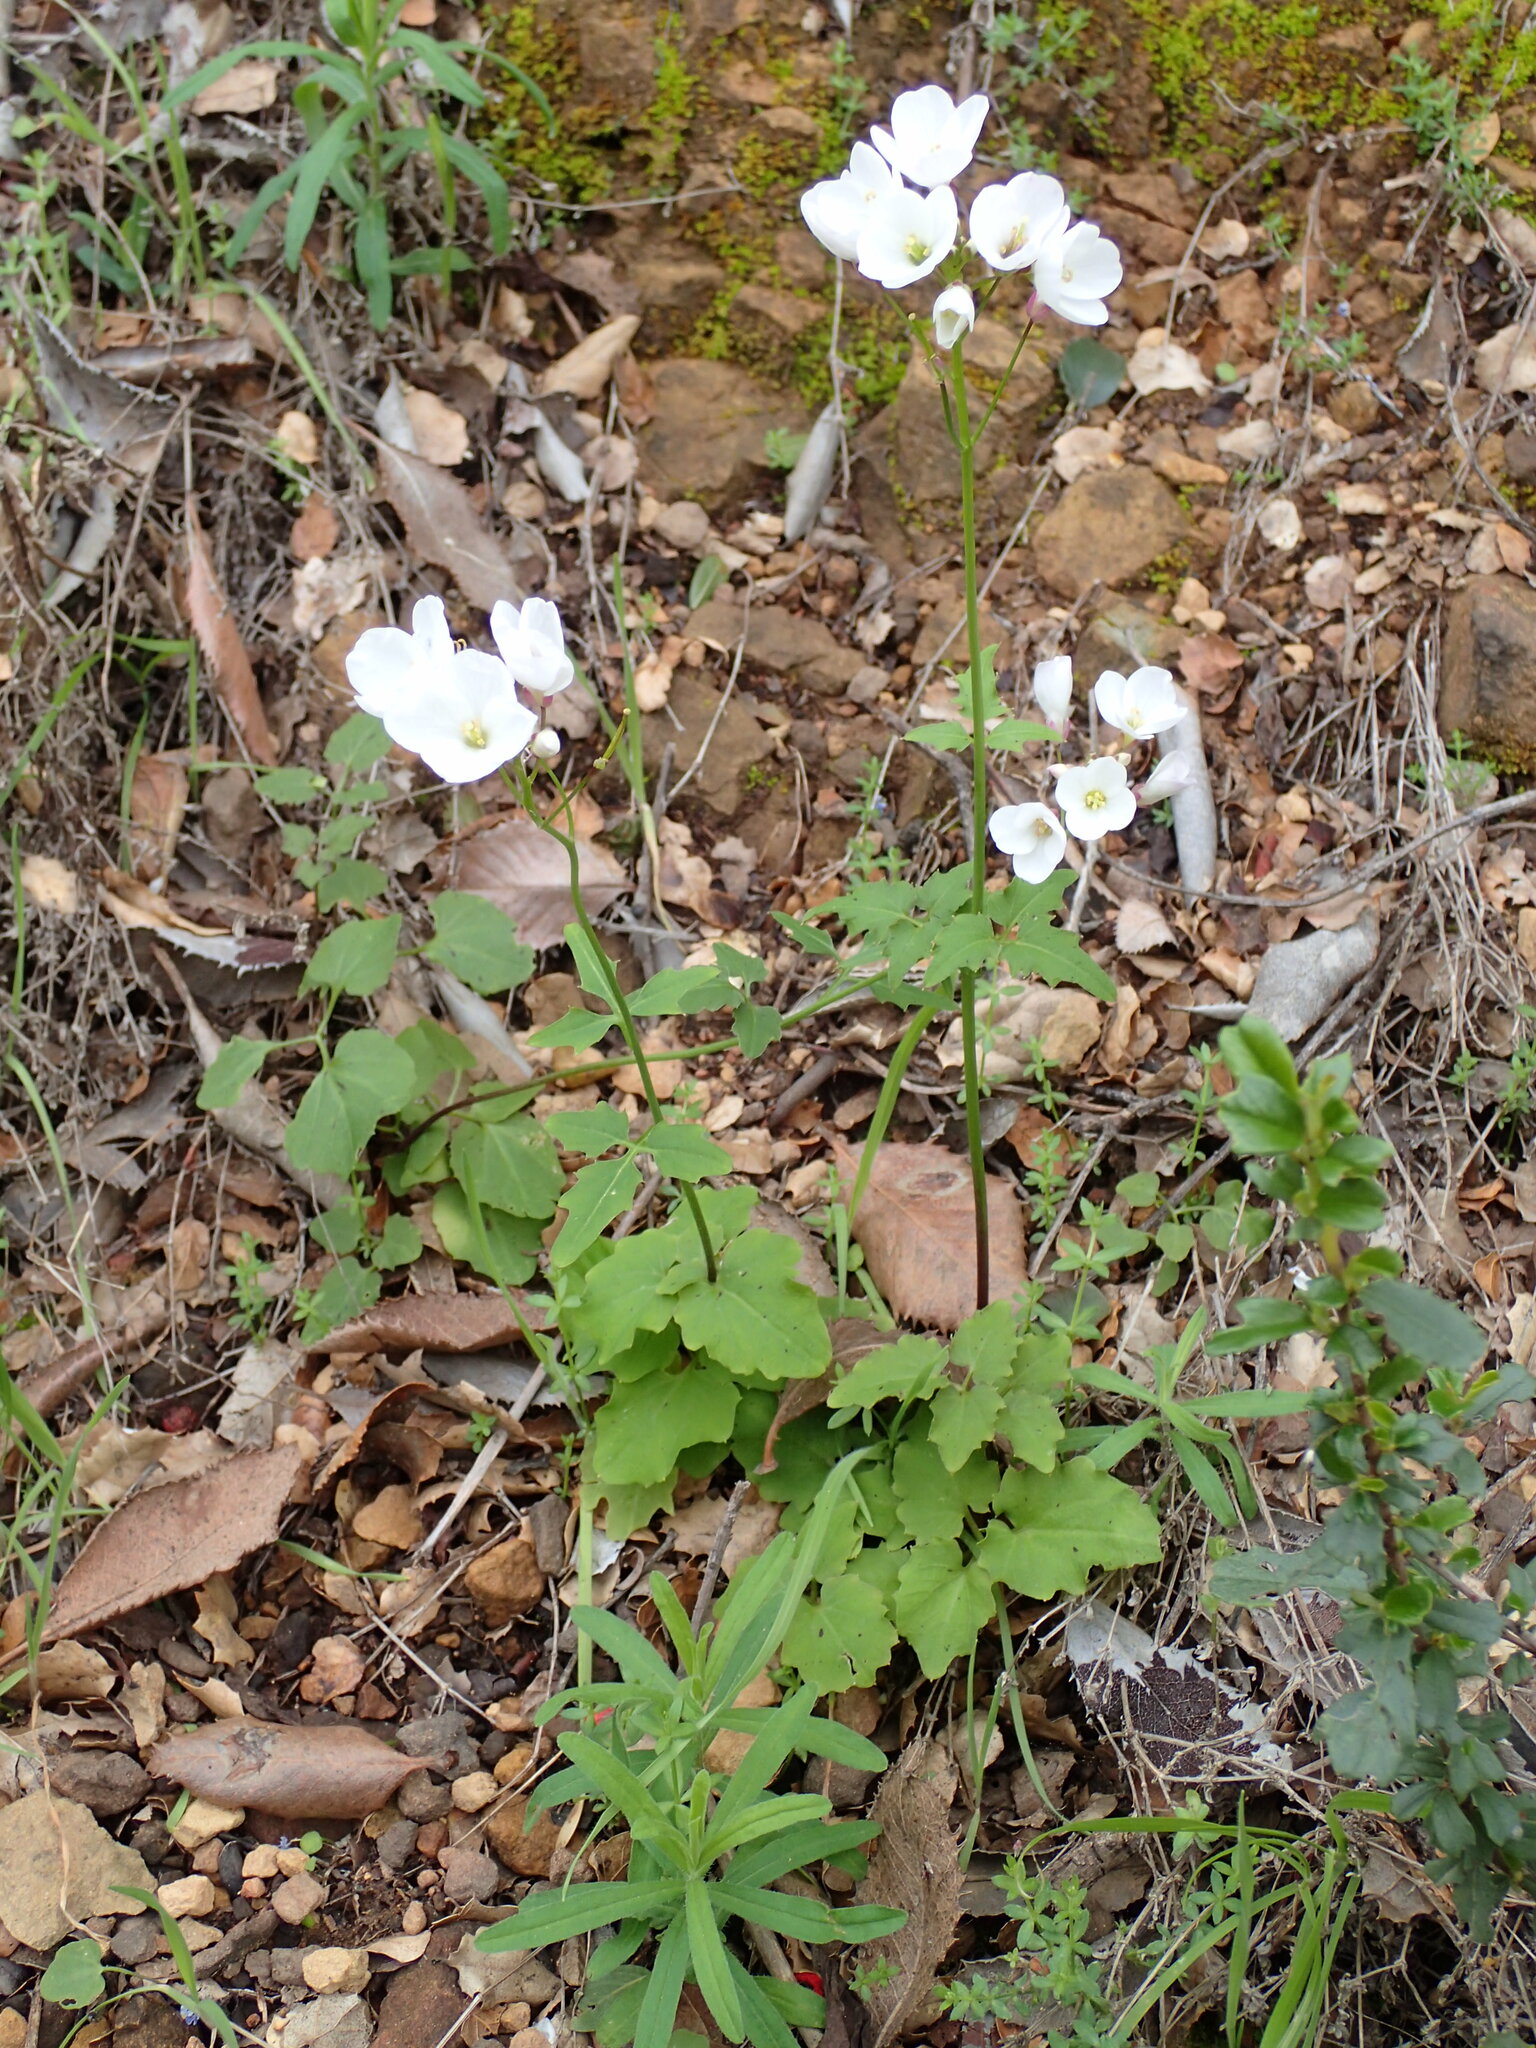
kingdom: Plantae
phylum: Tracheophyta
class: Magnoliopsida
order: Brassicales
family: Brassicaceae
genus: Cardamine
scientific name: Cardamine californica
